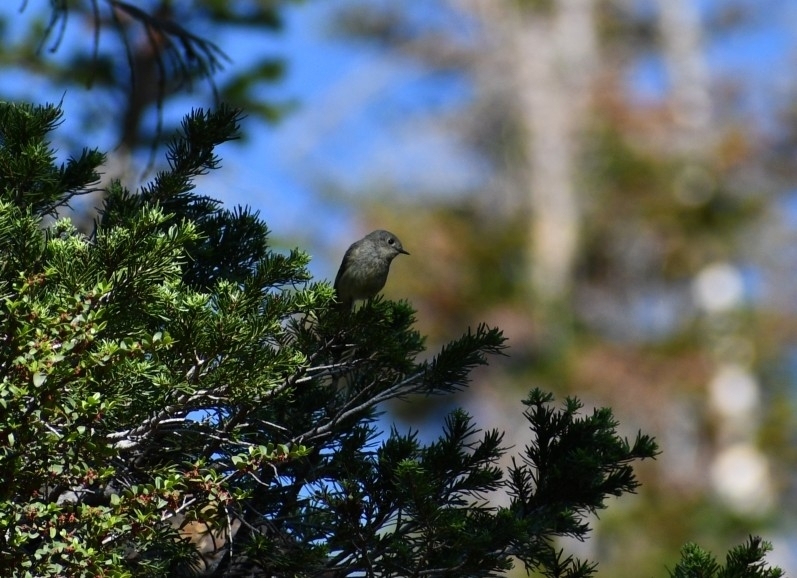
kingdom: Animalia
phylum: Chordata
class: Aves
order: Passeriformes
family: Regulidae
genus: Regulus
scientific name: Regulus calendula
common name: Ruby-crowned kinglet
